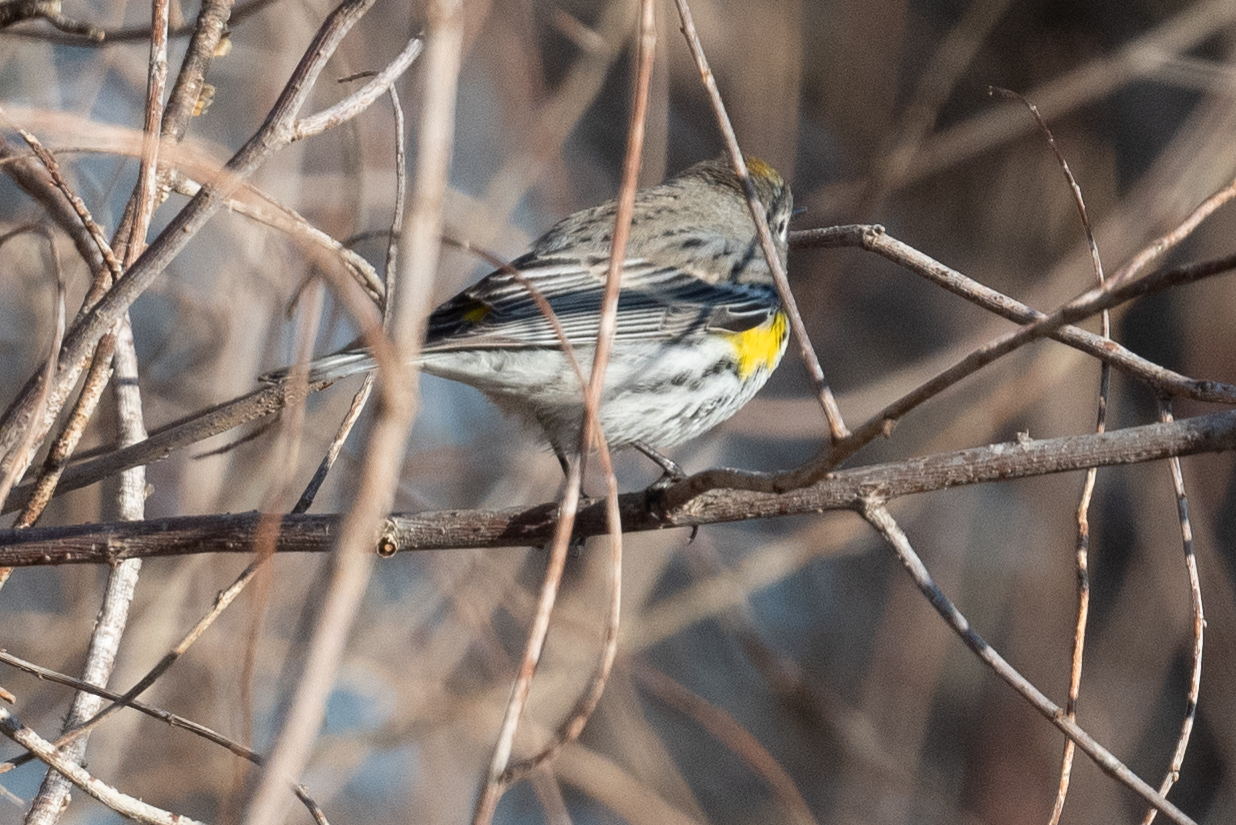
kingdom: Animalia
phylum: Chordata
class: Aves
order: Passeriformes
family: Parulidae
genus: Setophaga
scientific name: Setophaga coronata
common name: Myrtle warbler
